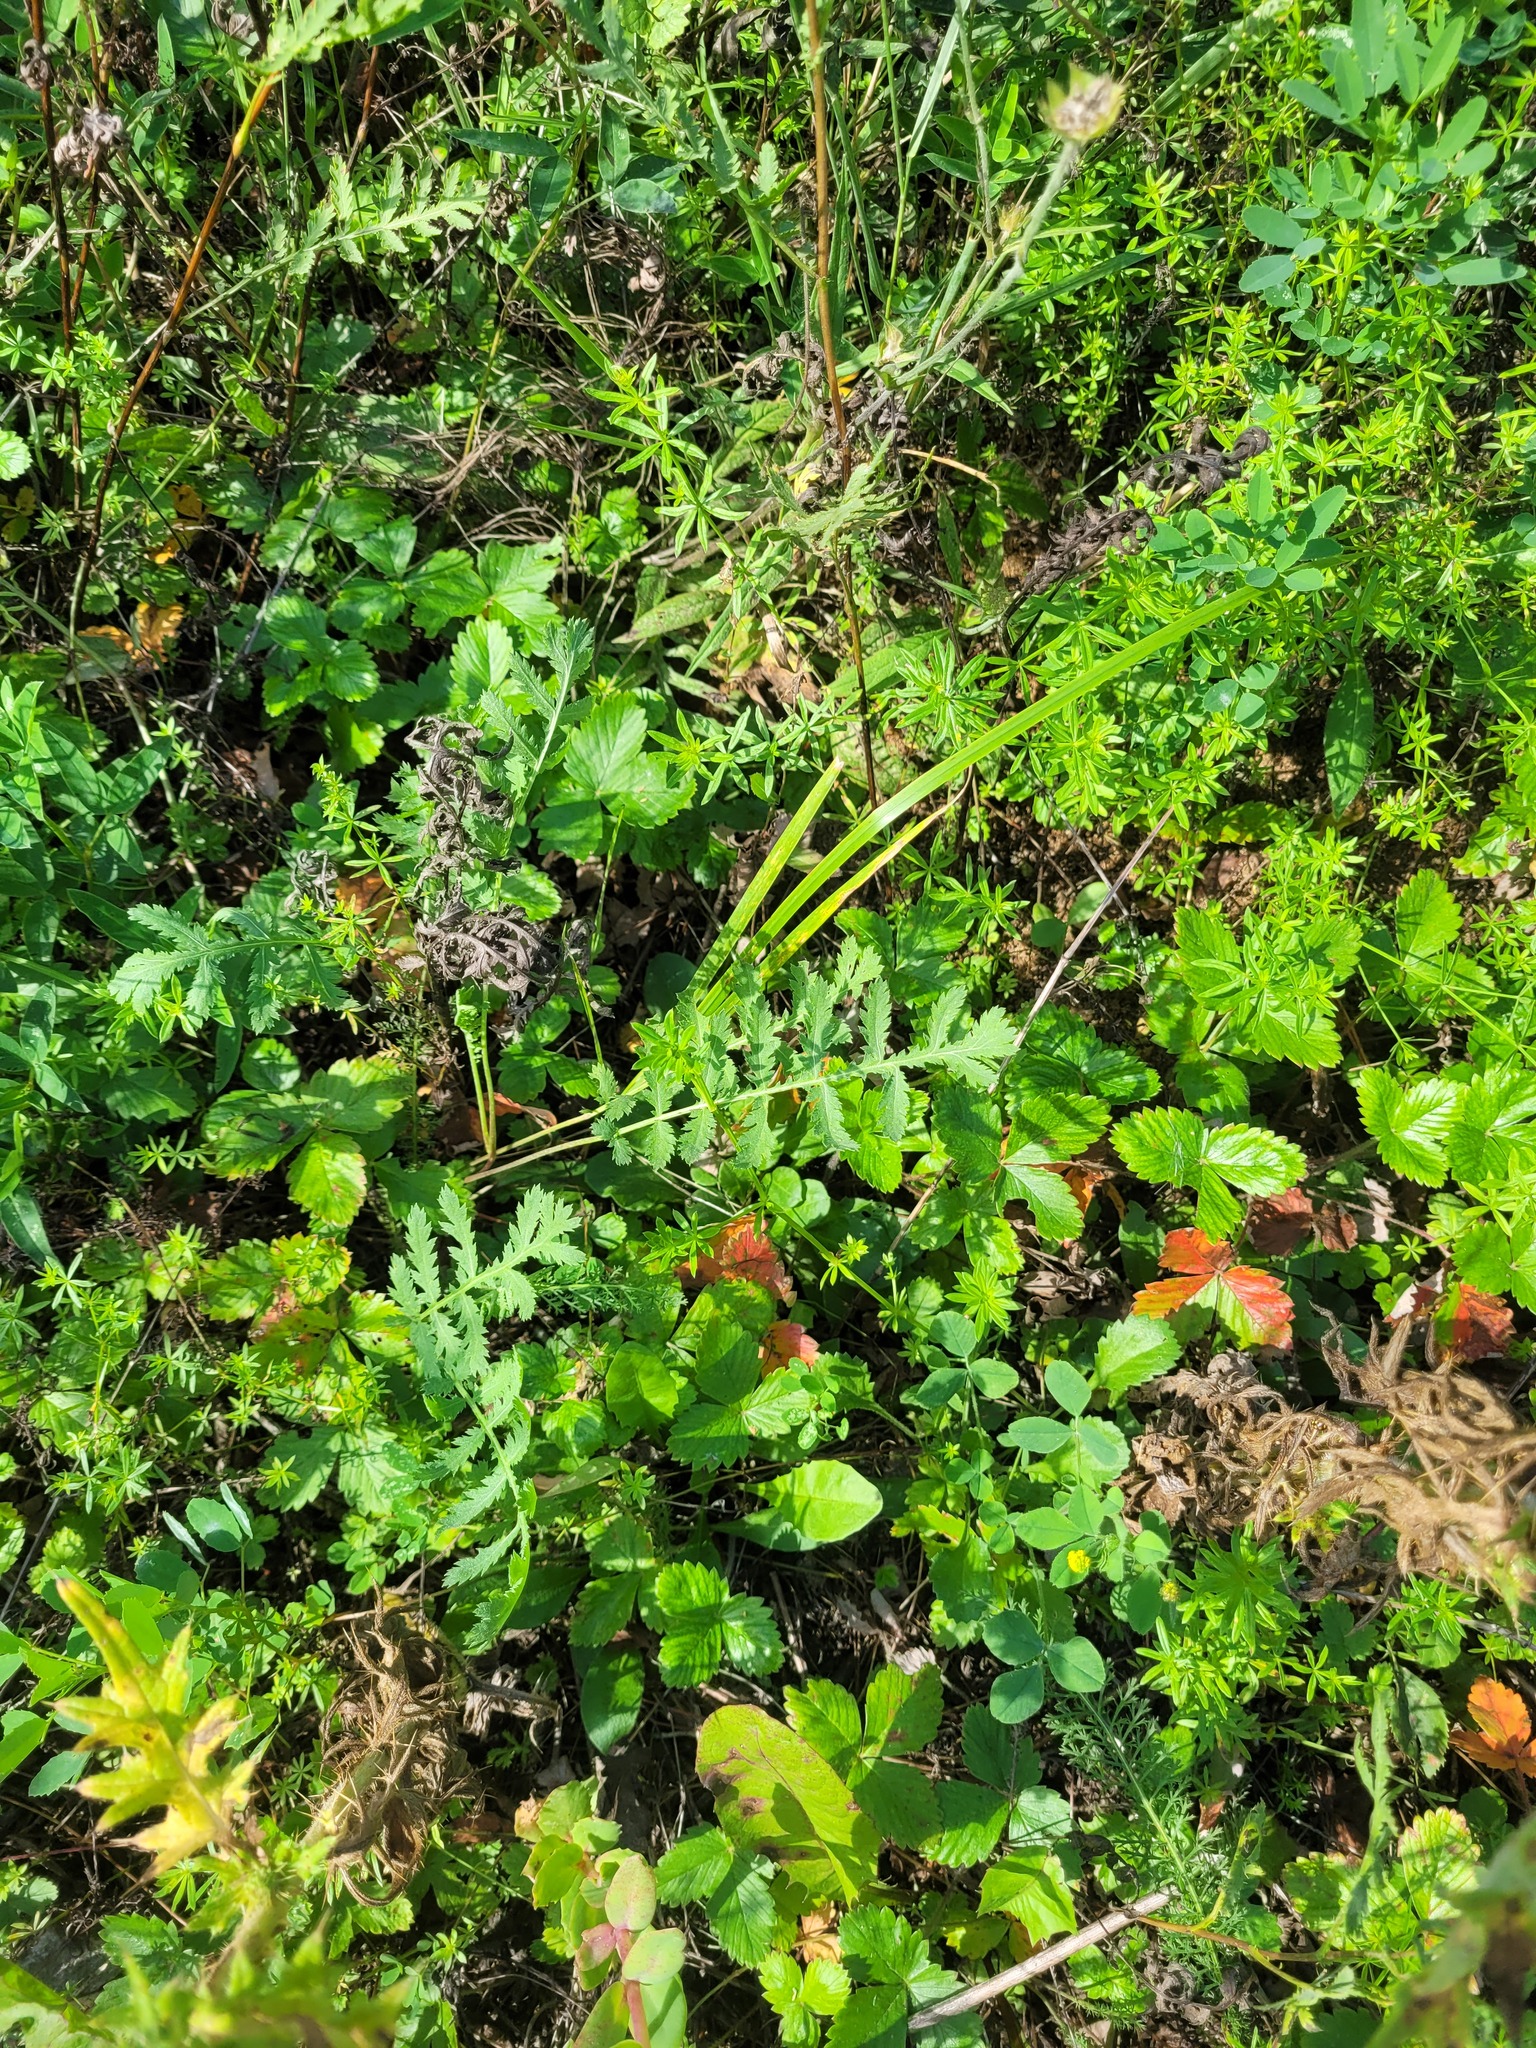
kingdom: Plantae
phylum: Tracheophyta
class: Magnoliopsida
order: Asterales
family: Asteraceae
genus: Tanacetum
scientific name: Tanacetum vulgare
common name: Common tansy
